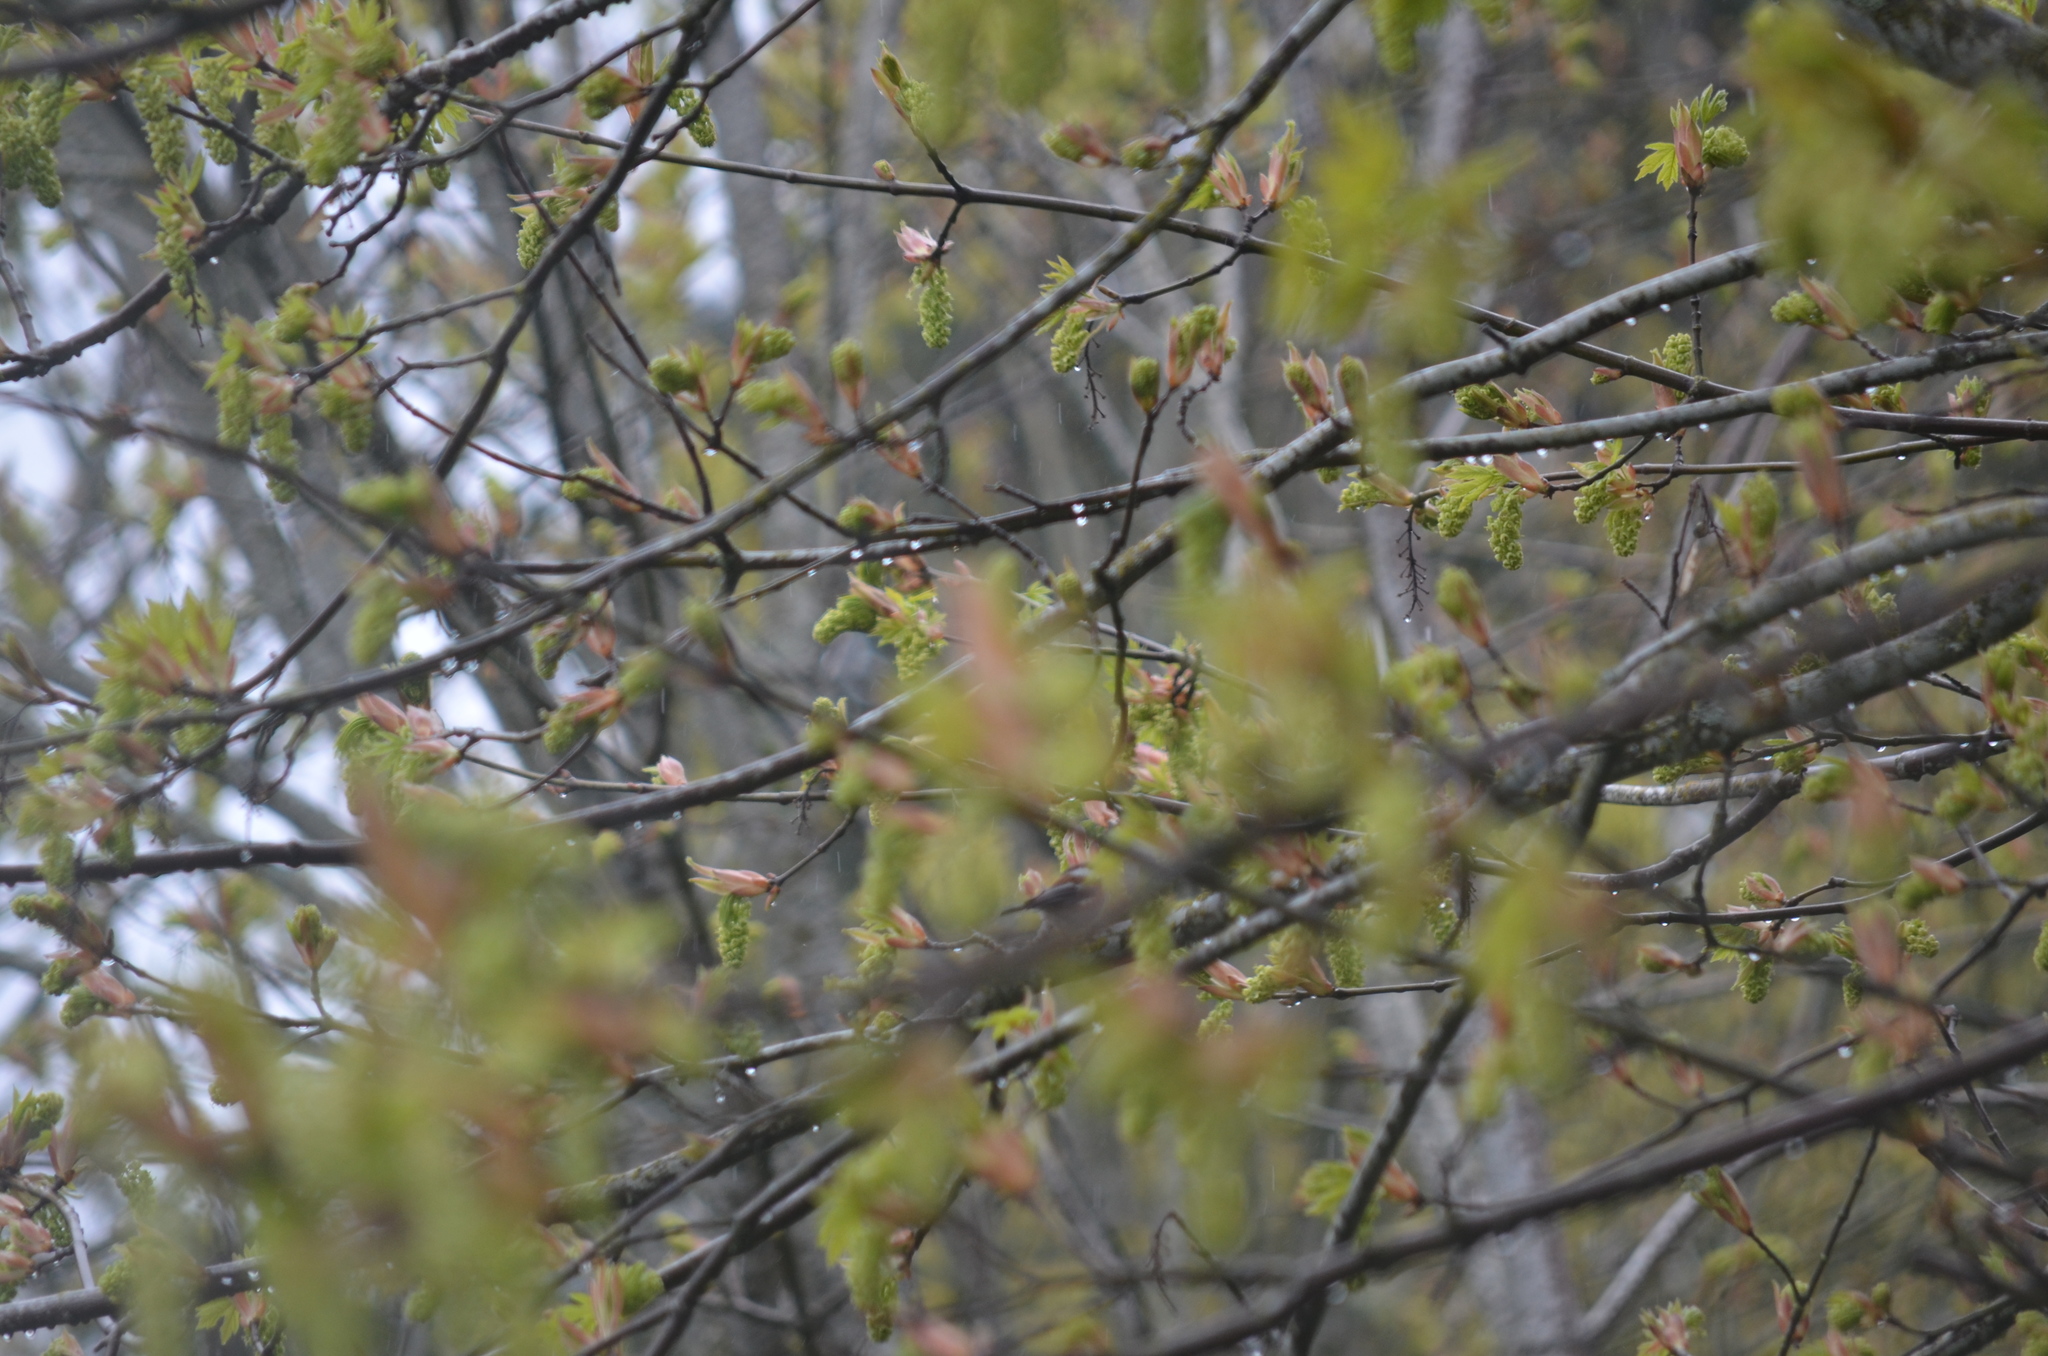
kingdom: Animalia
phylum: Chordata
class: Aves
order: Passeriformes
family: Paridae
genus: Poecile
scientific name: Poecile rufescens
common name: Chestnut-backed chickadee
